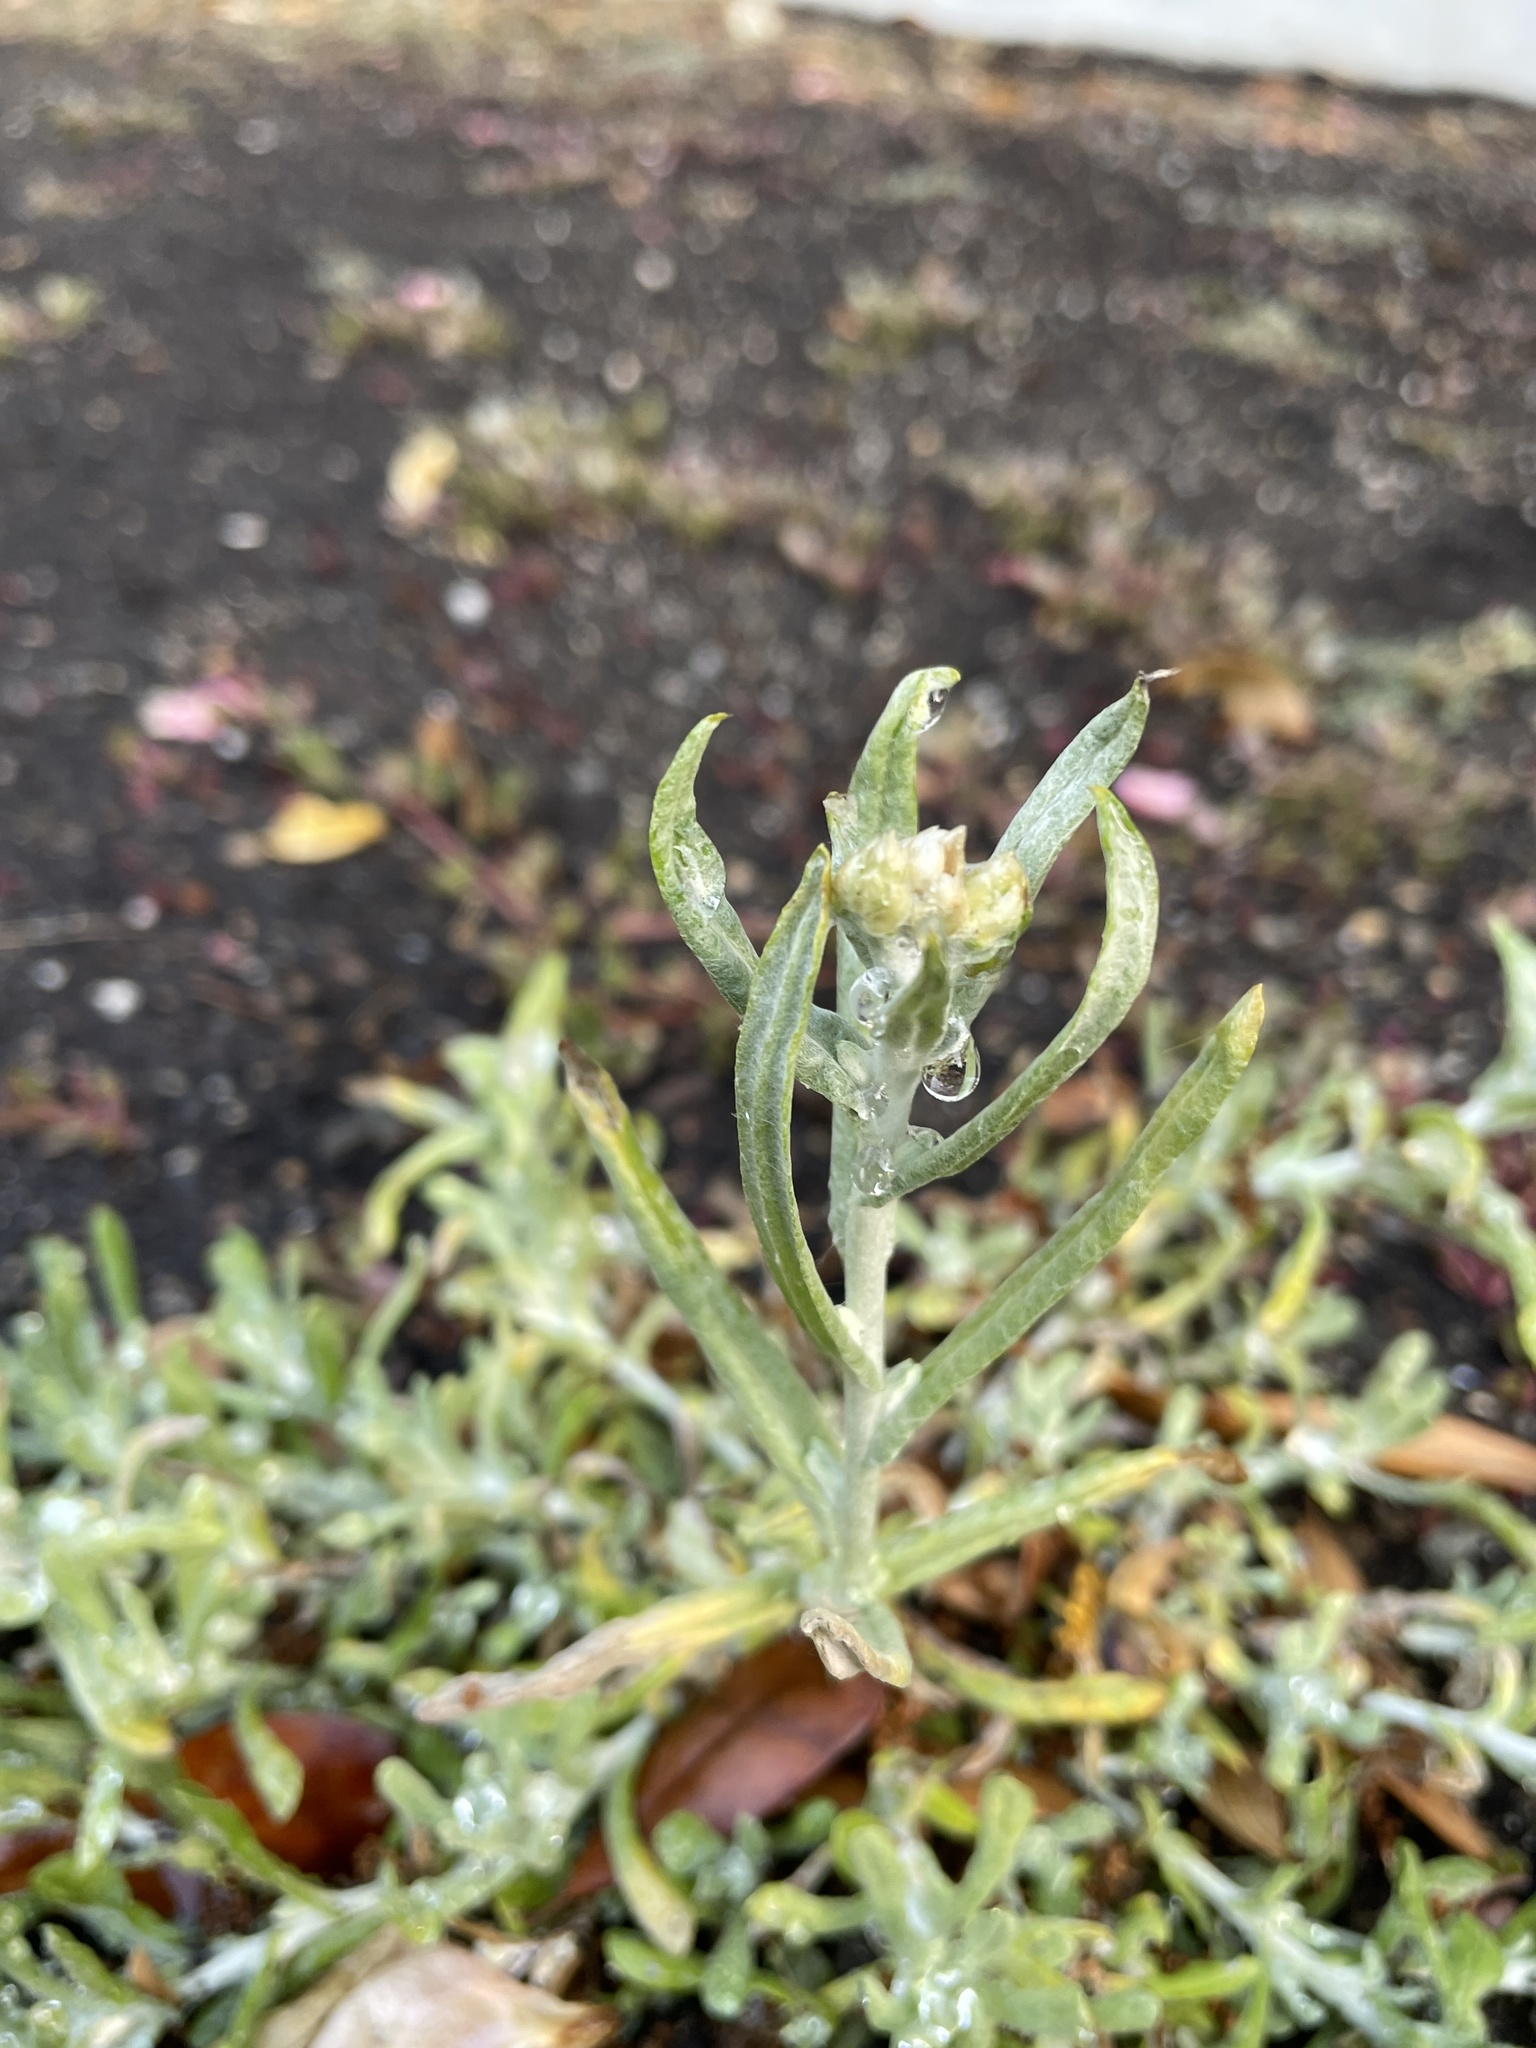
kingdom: Plantae
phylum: Tracheophyta
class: Magnoliopsida
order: Asterales
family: Asteraceae
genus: Helichrysum
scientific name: Helichrysum luteoalbum
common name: Daisy
